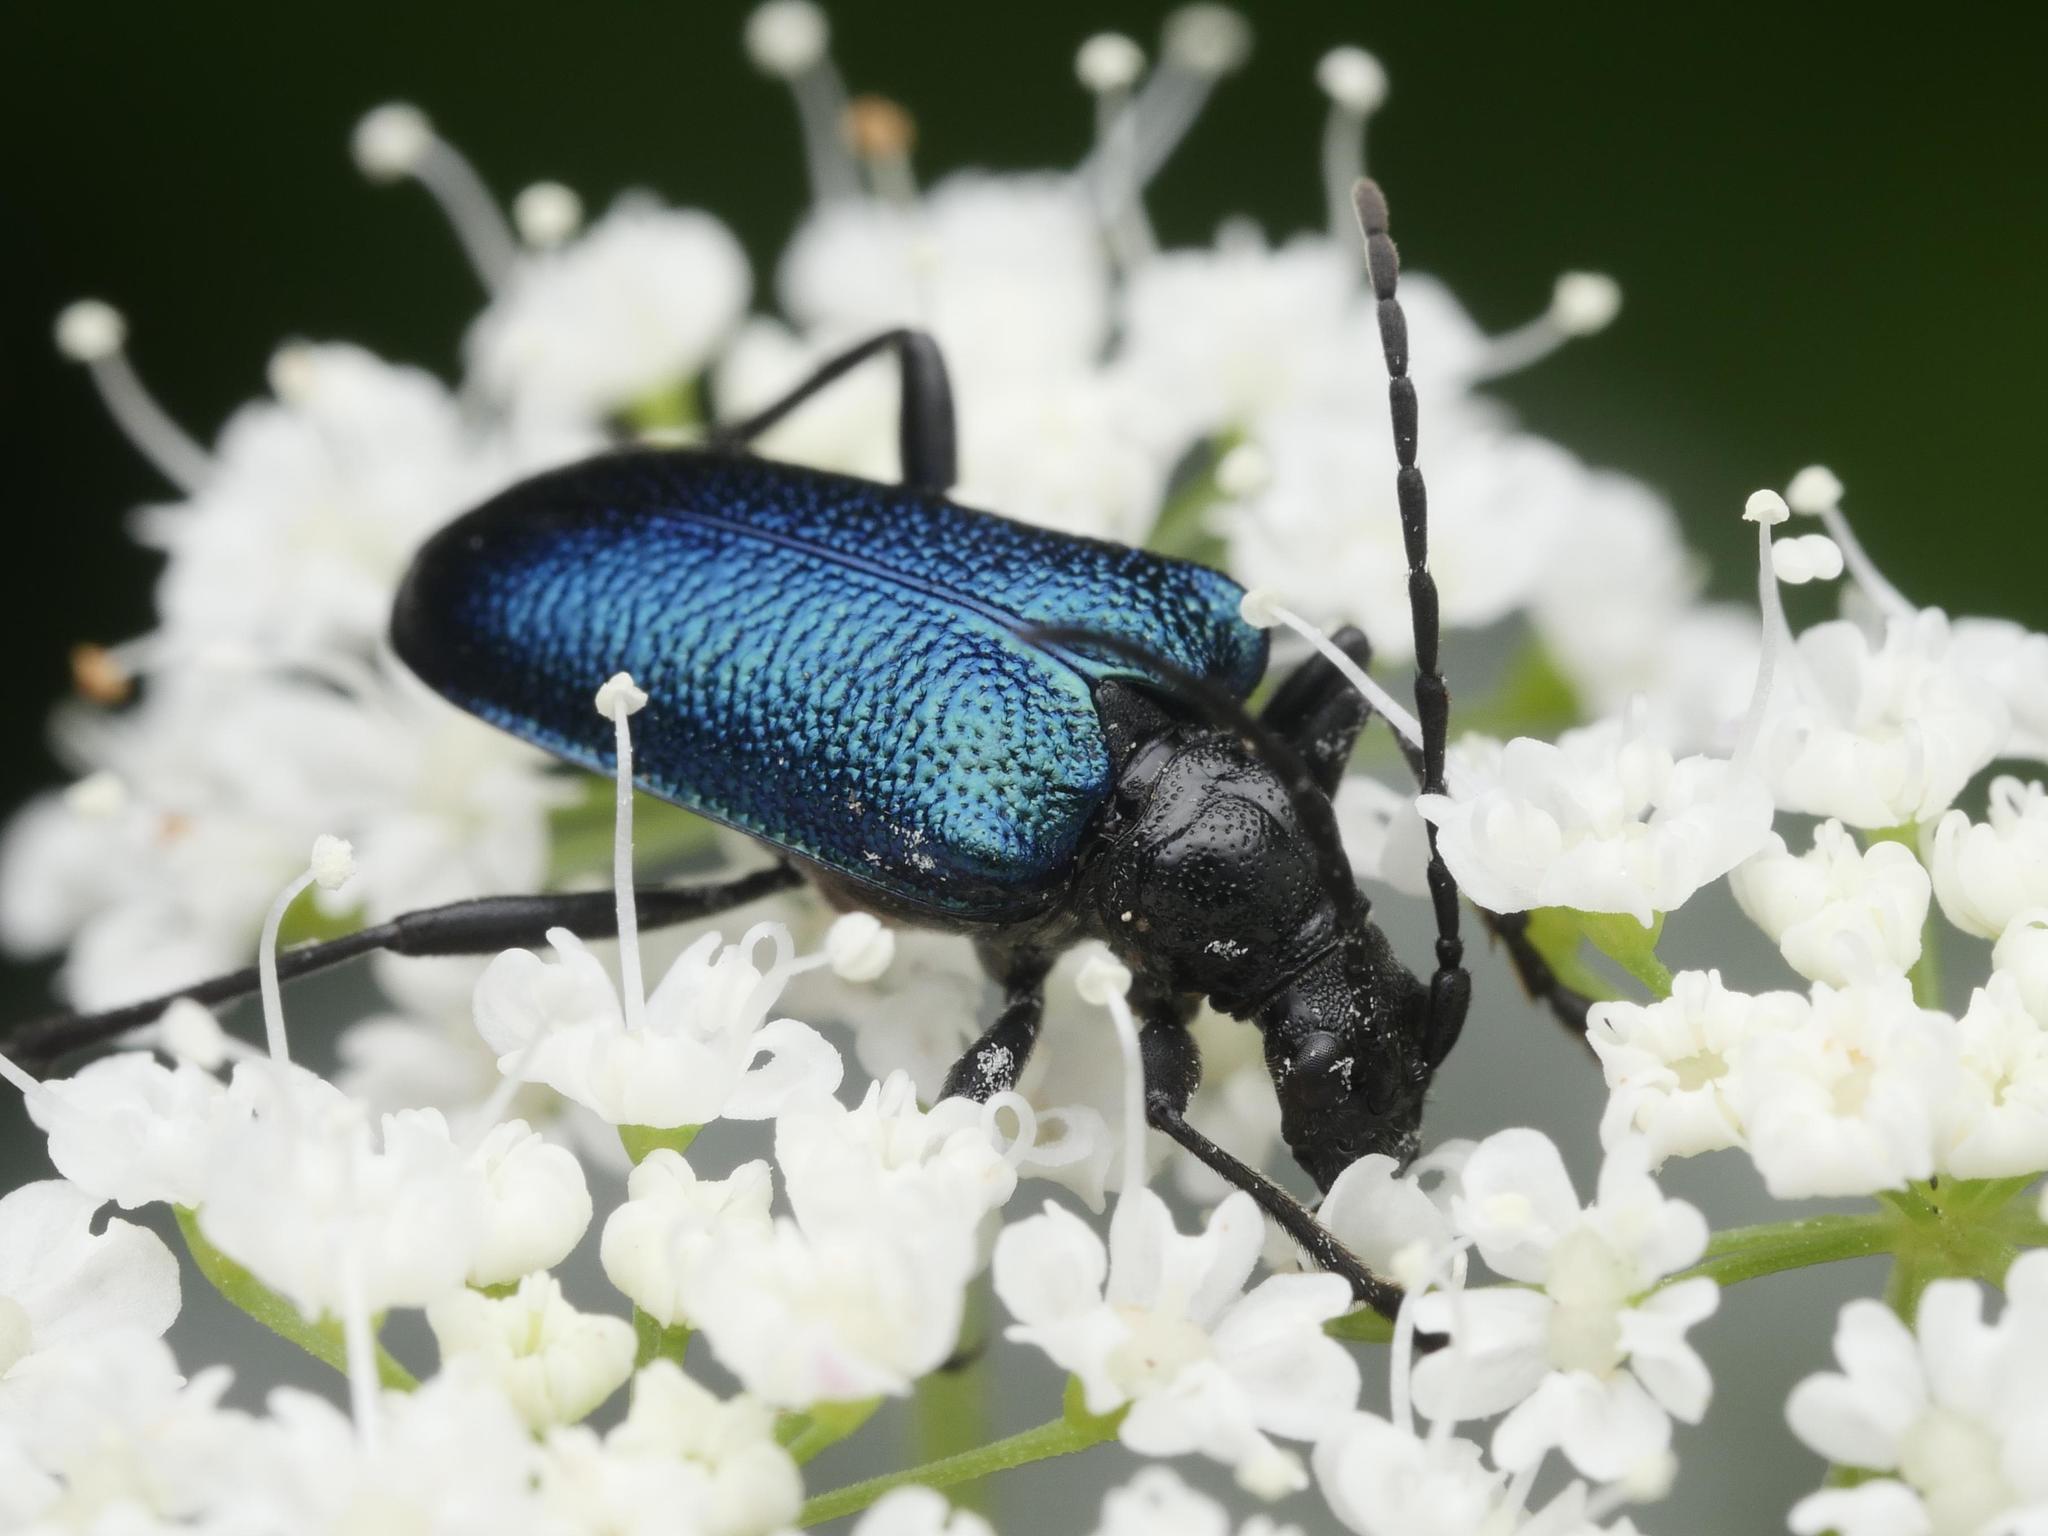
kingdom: Animalia
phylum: Arthropoda
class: Insecta
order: Coleoptera
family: Cerambycidae
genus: Gaurotes
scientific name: Gaurotes virginea
